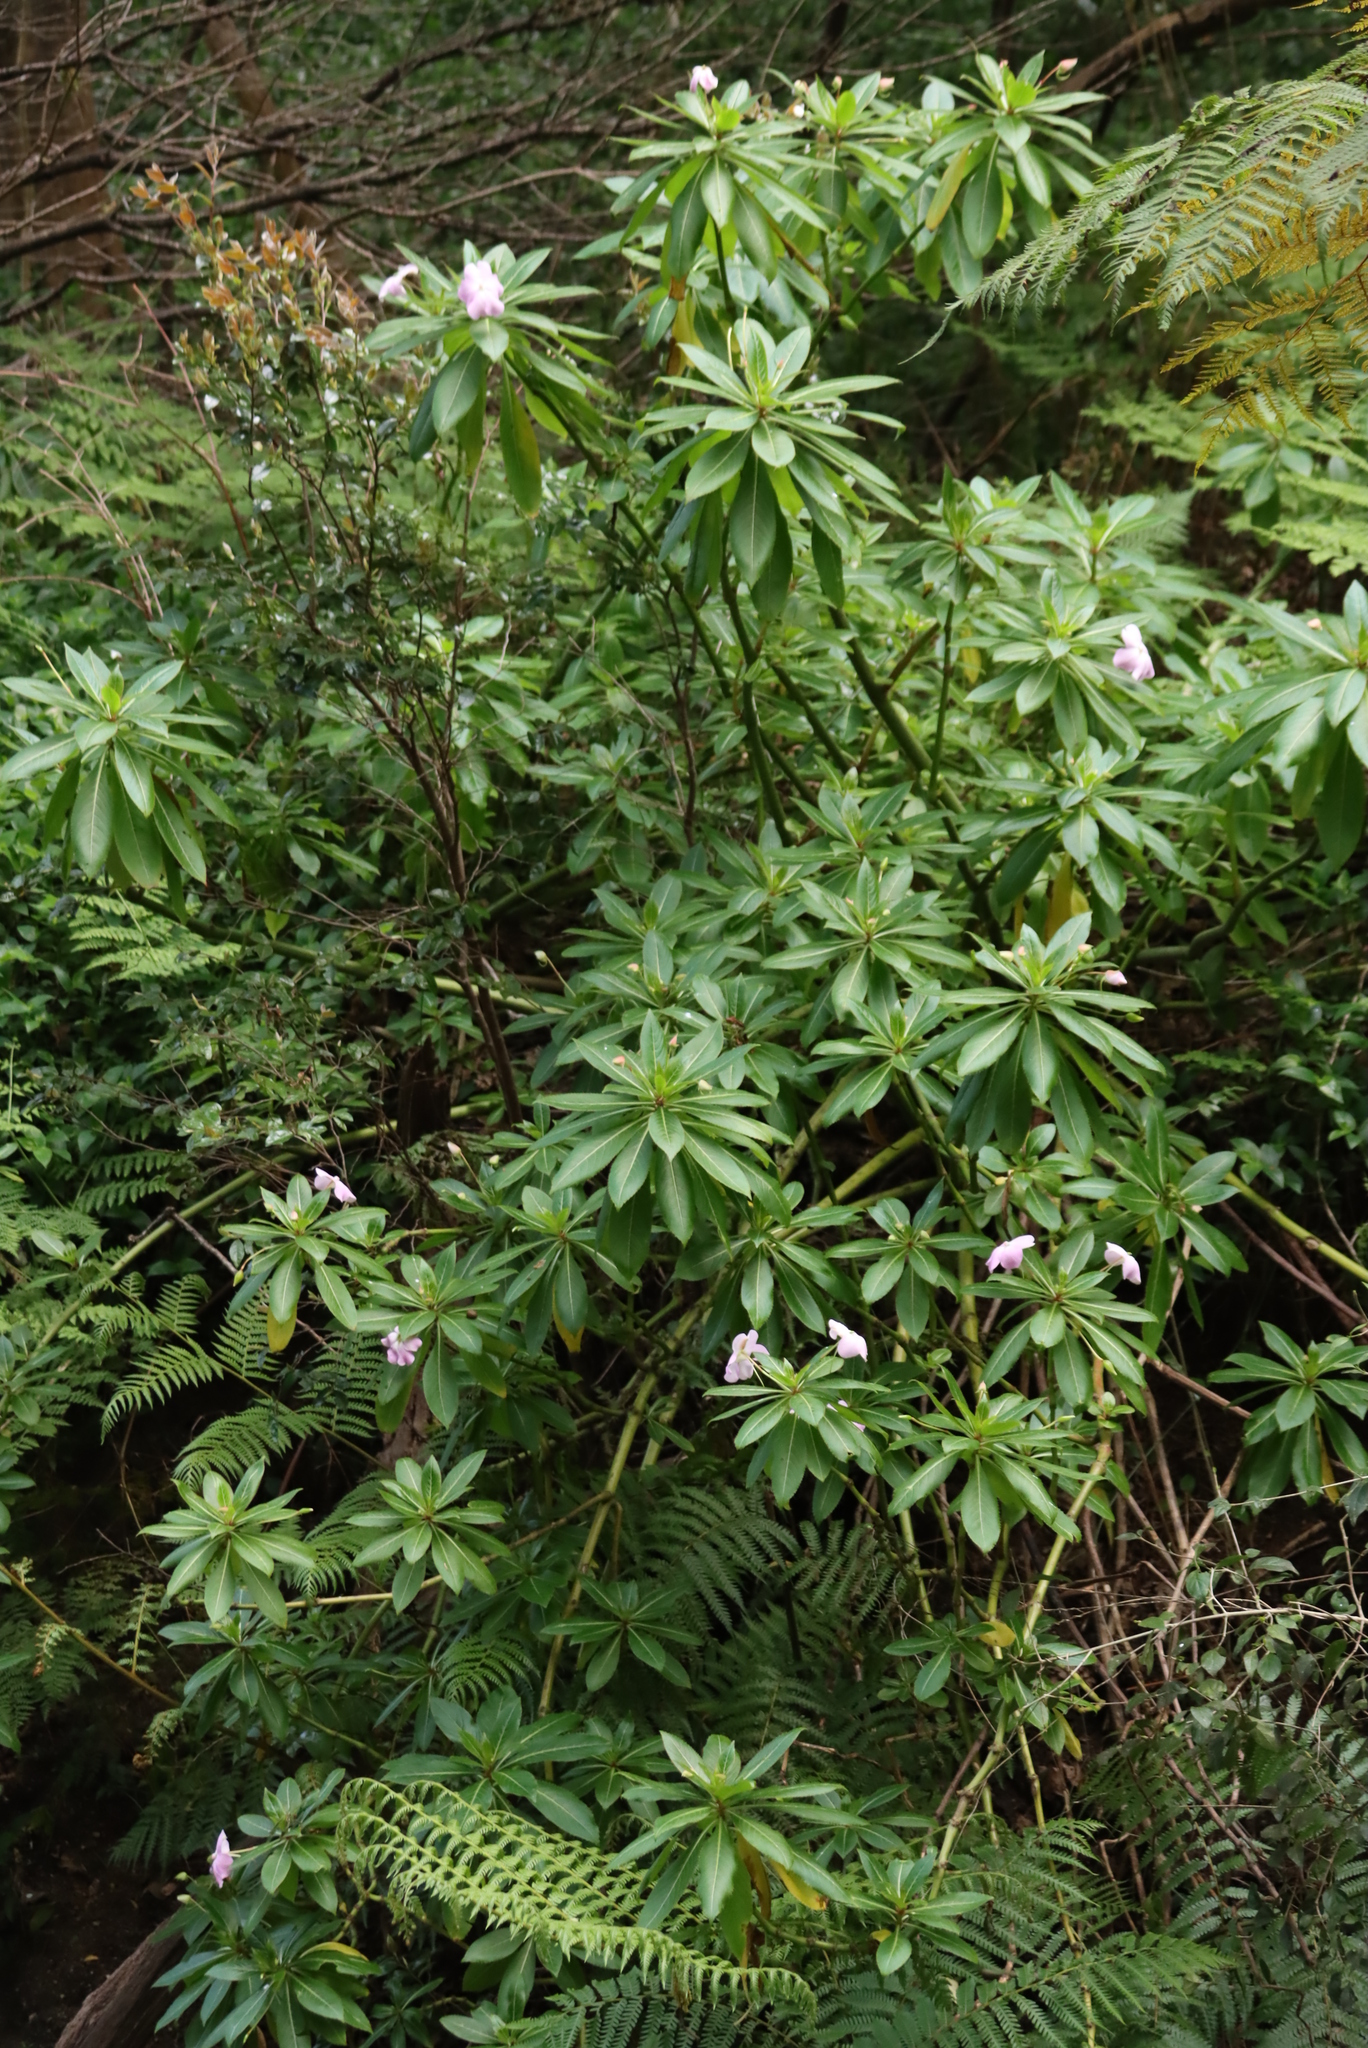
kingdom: Plantae
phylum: Tracheophyta
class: Magnoliopsida
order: Ericales
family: Balsaminaceae
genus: Impatiens
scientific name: Impatiens sodenii
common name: Oliver's touch-me-not
